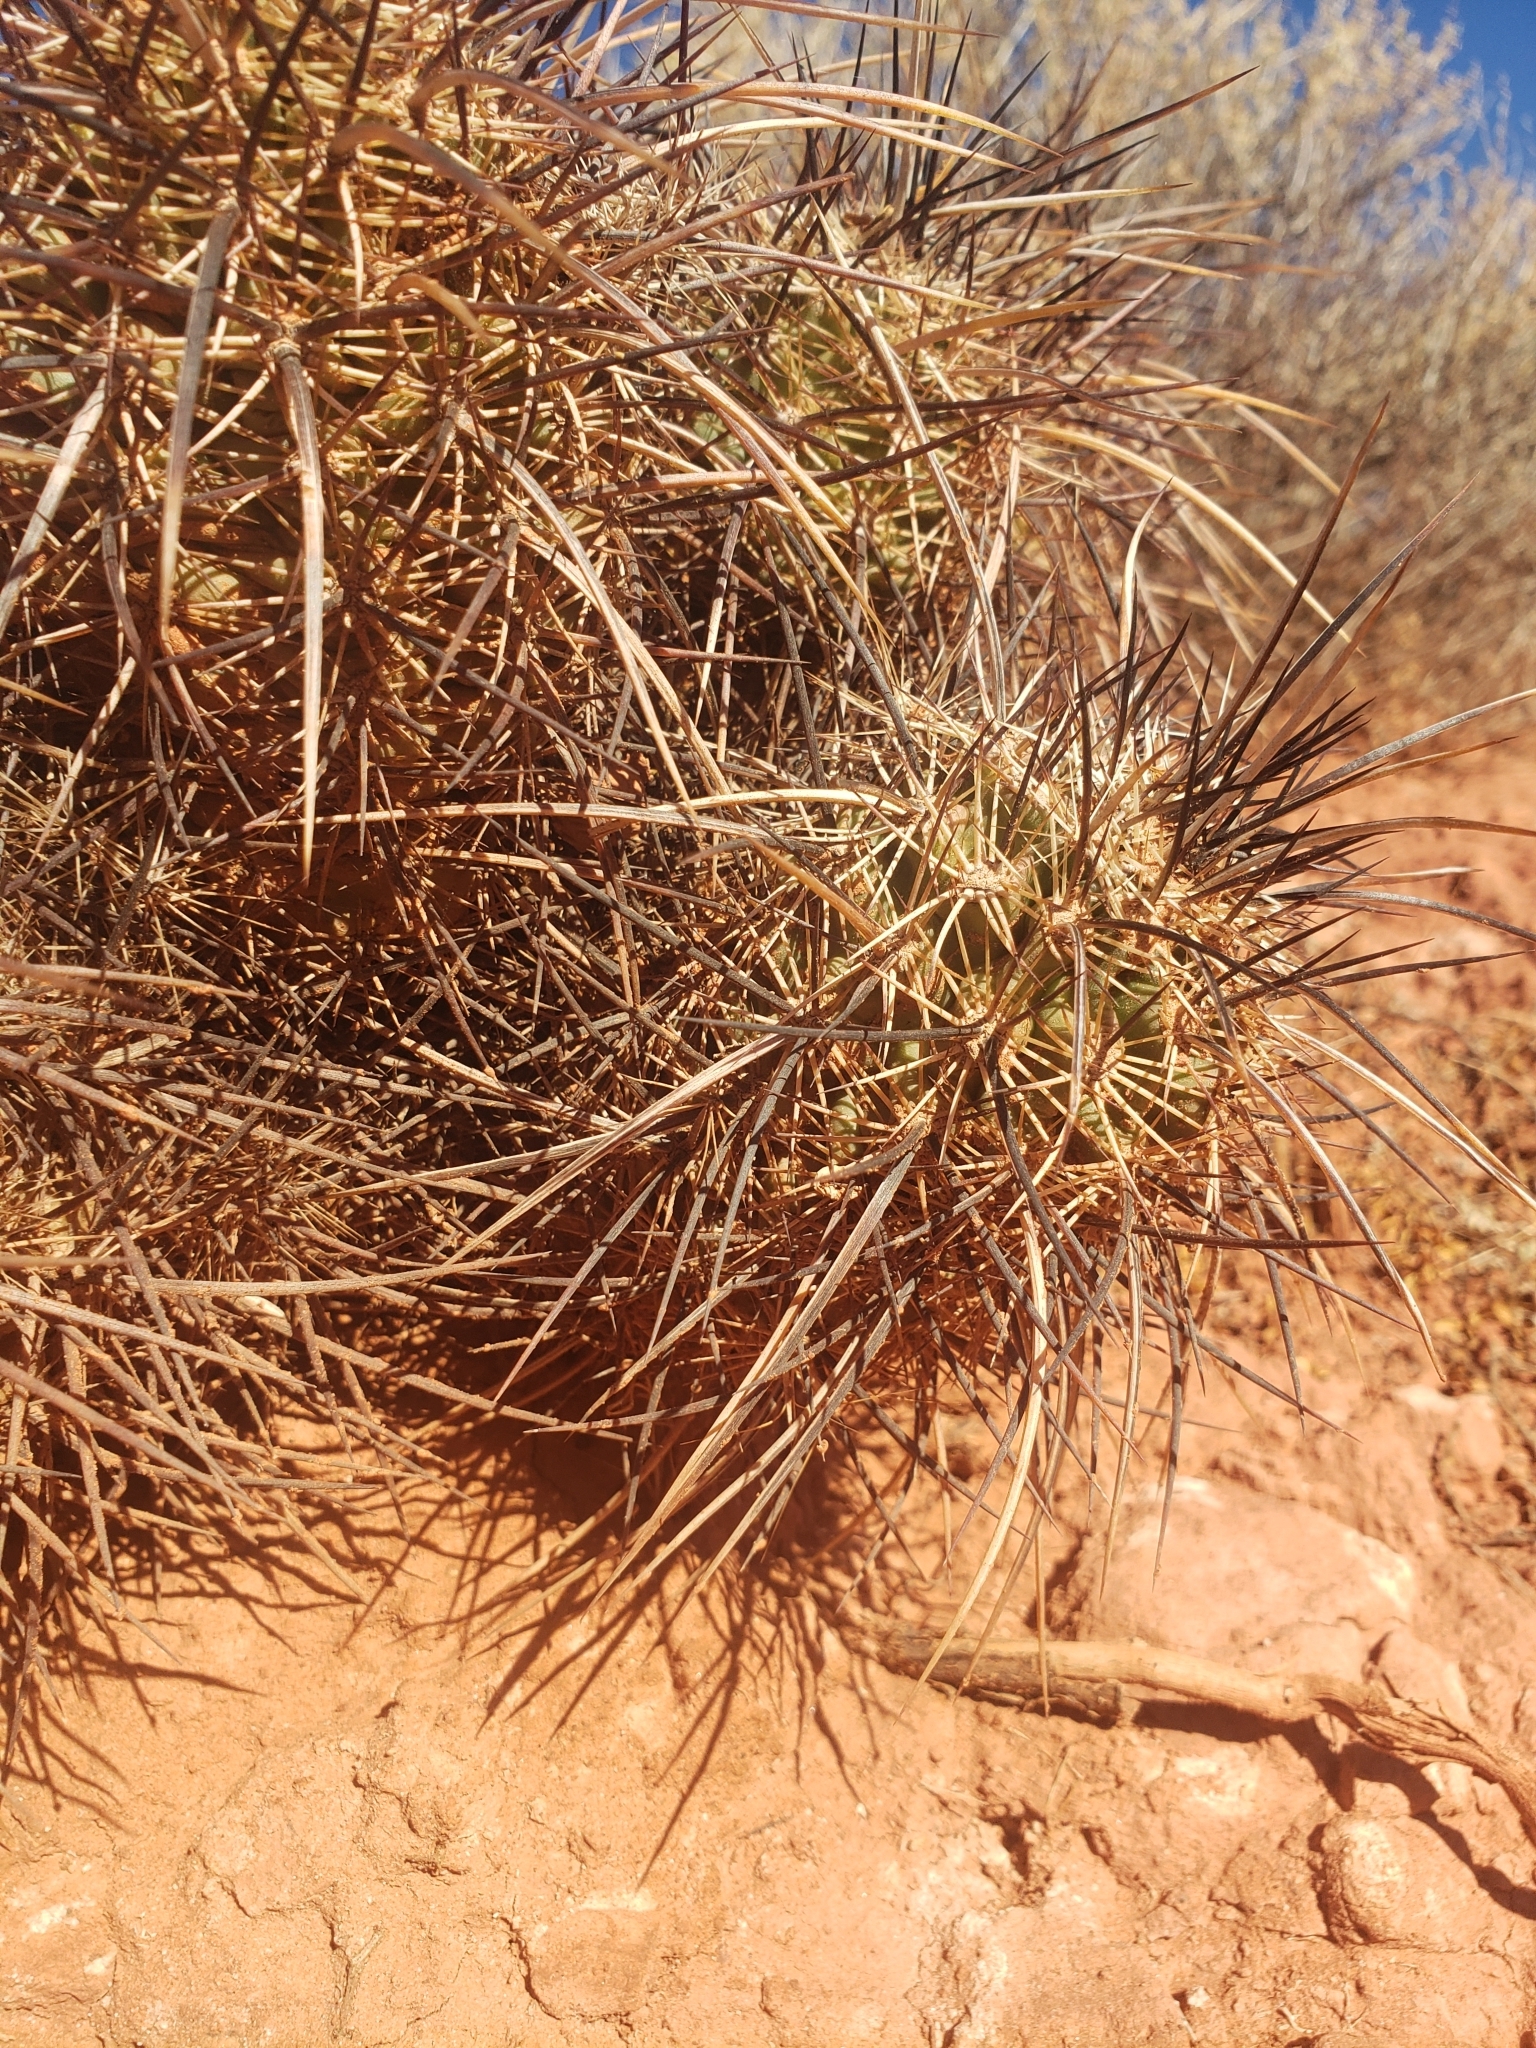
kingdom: Plantae
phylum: Tracheophyta
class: Magnoliopsida
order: Caryophyllales
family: Cactaceae
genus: Echinocereus
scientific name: Echinocereus relictus
